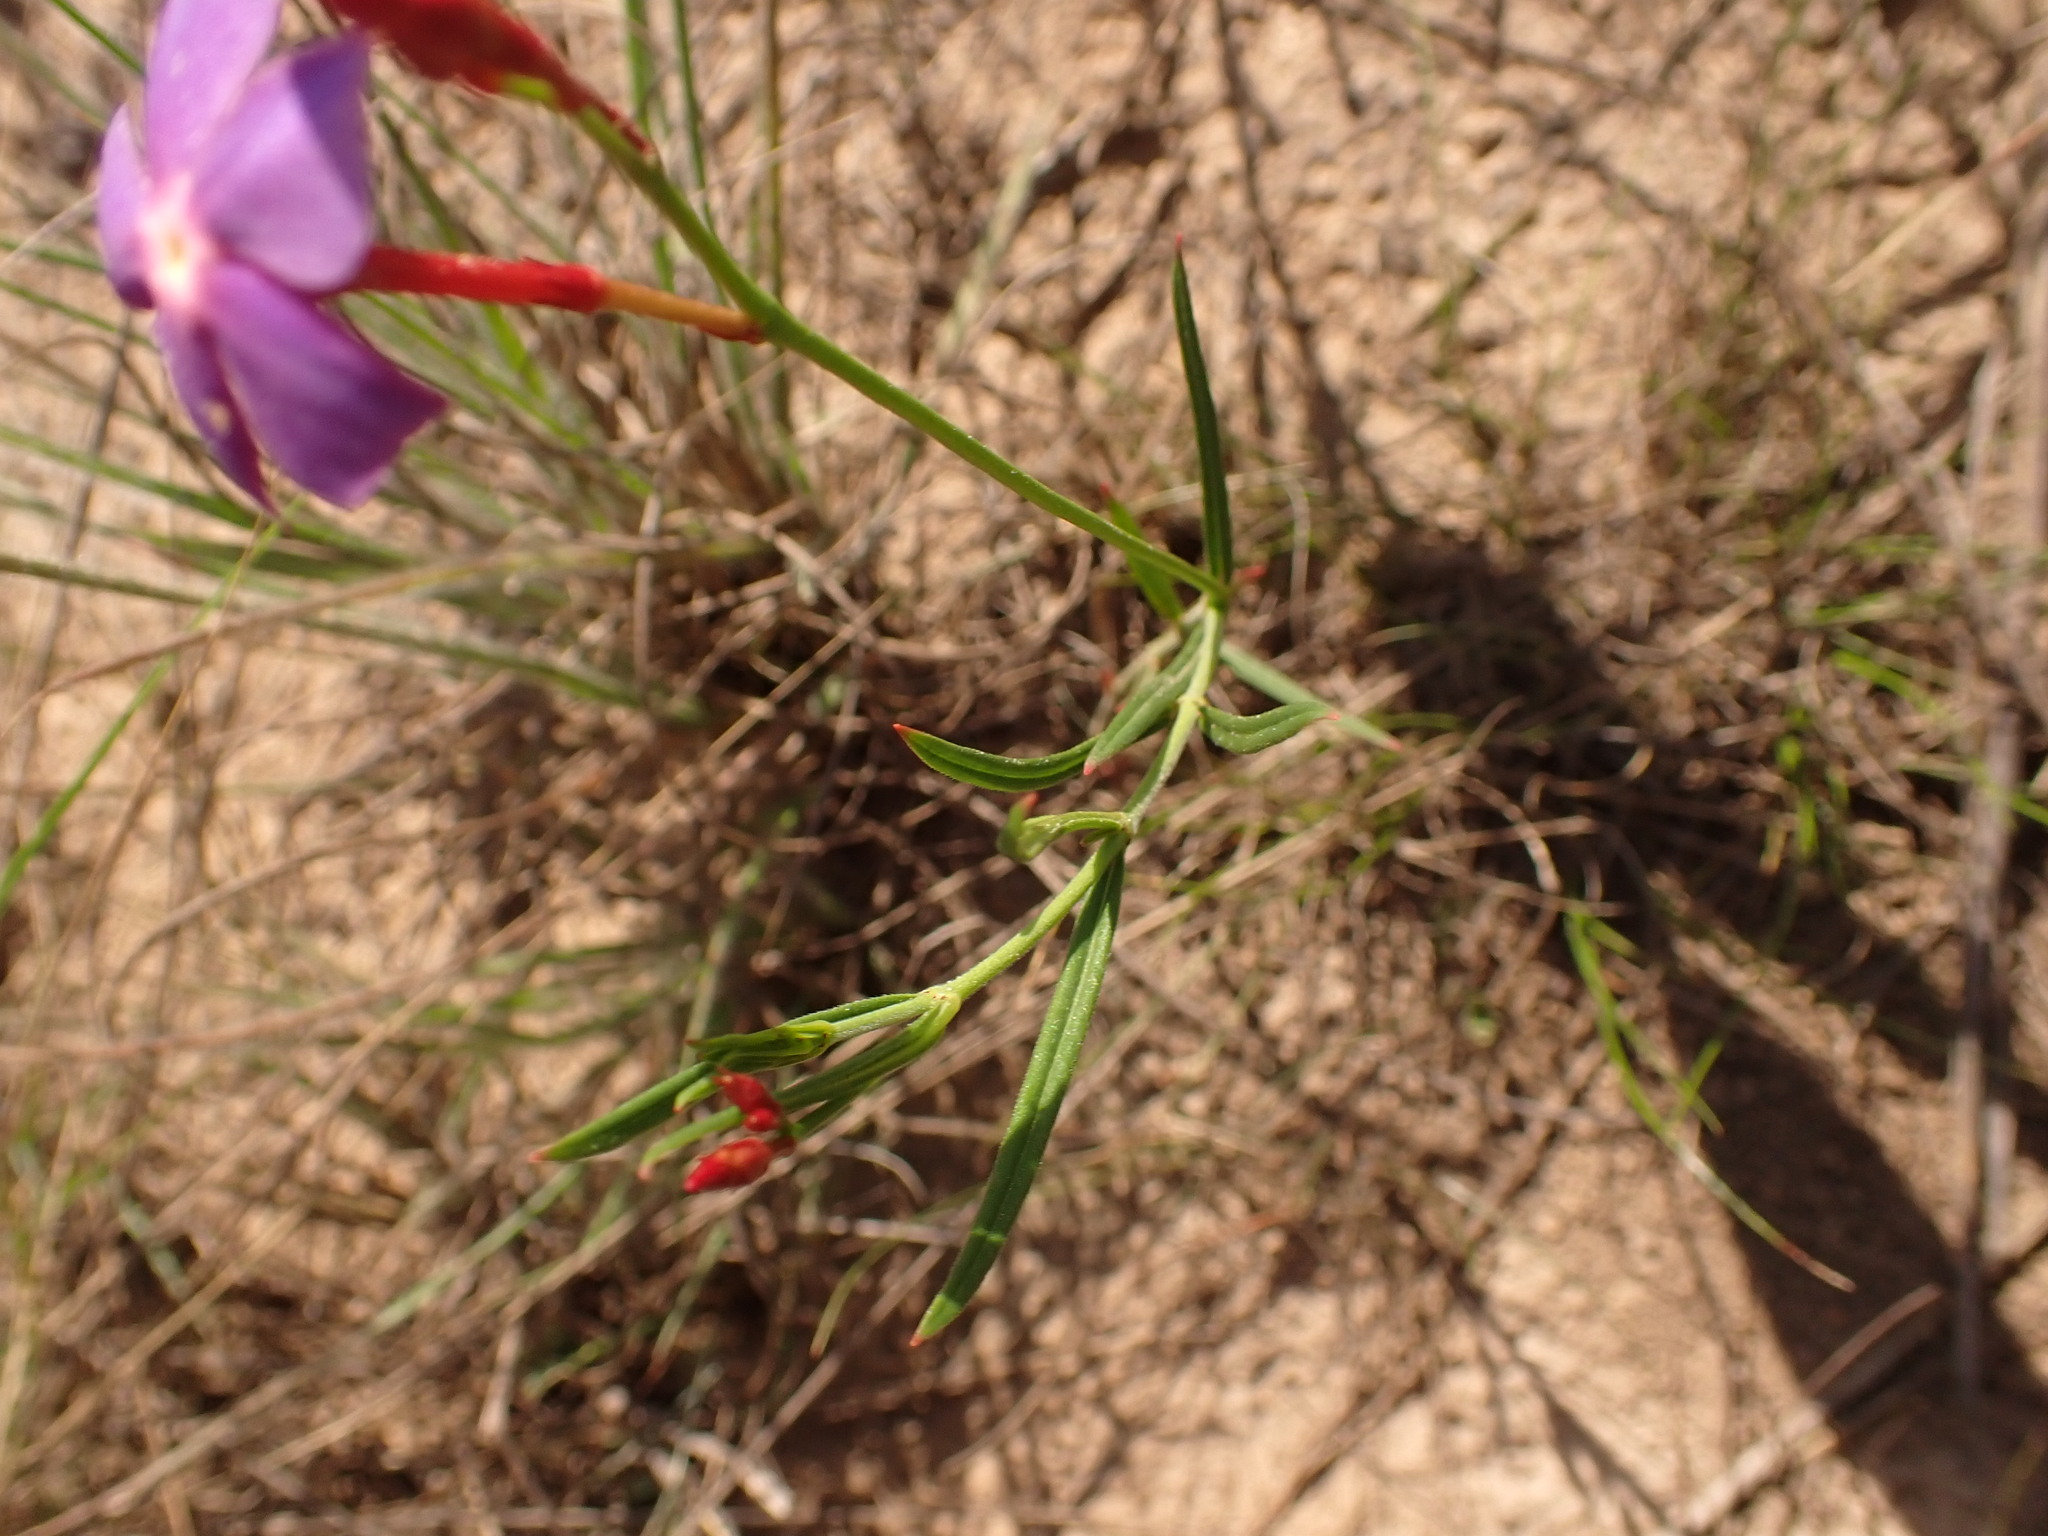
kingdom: Plantae
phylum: Tracheophyta
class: Magnoliopsida
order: Gentianales
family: Apocynaceae
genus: Mandevilla
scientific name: Mandevilla tenuifolia
